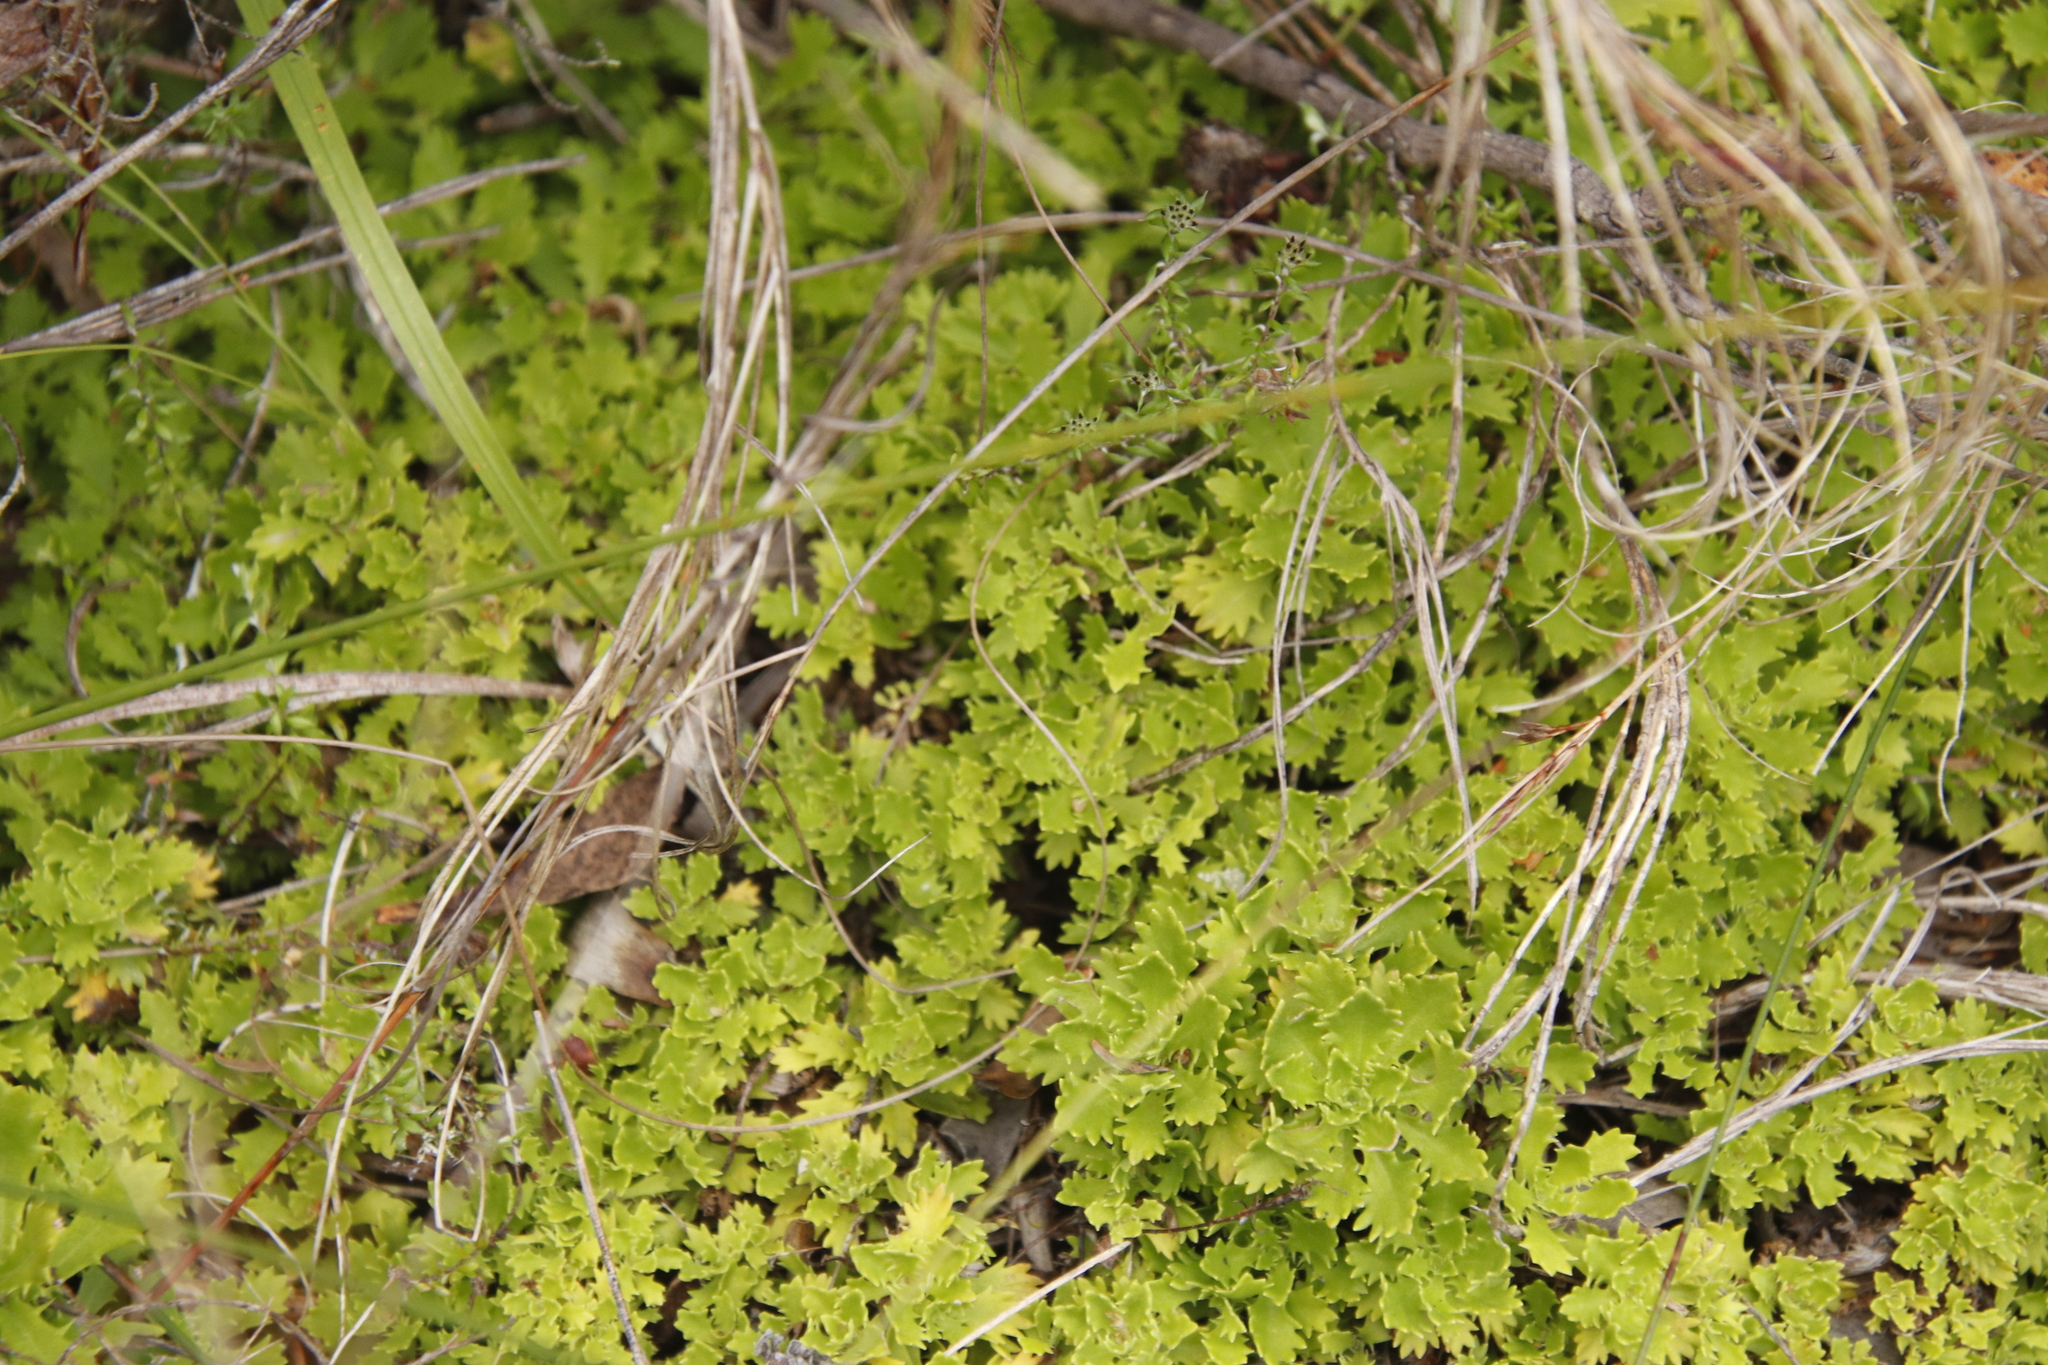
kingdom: Plantae
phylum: Tracheophyta
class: Magnoliopsida
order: Asterales
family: Asteraceae
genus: Osmitopsis
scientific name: Osmitopsis dentata
